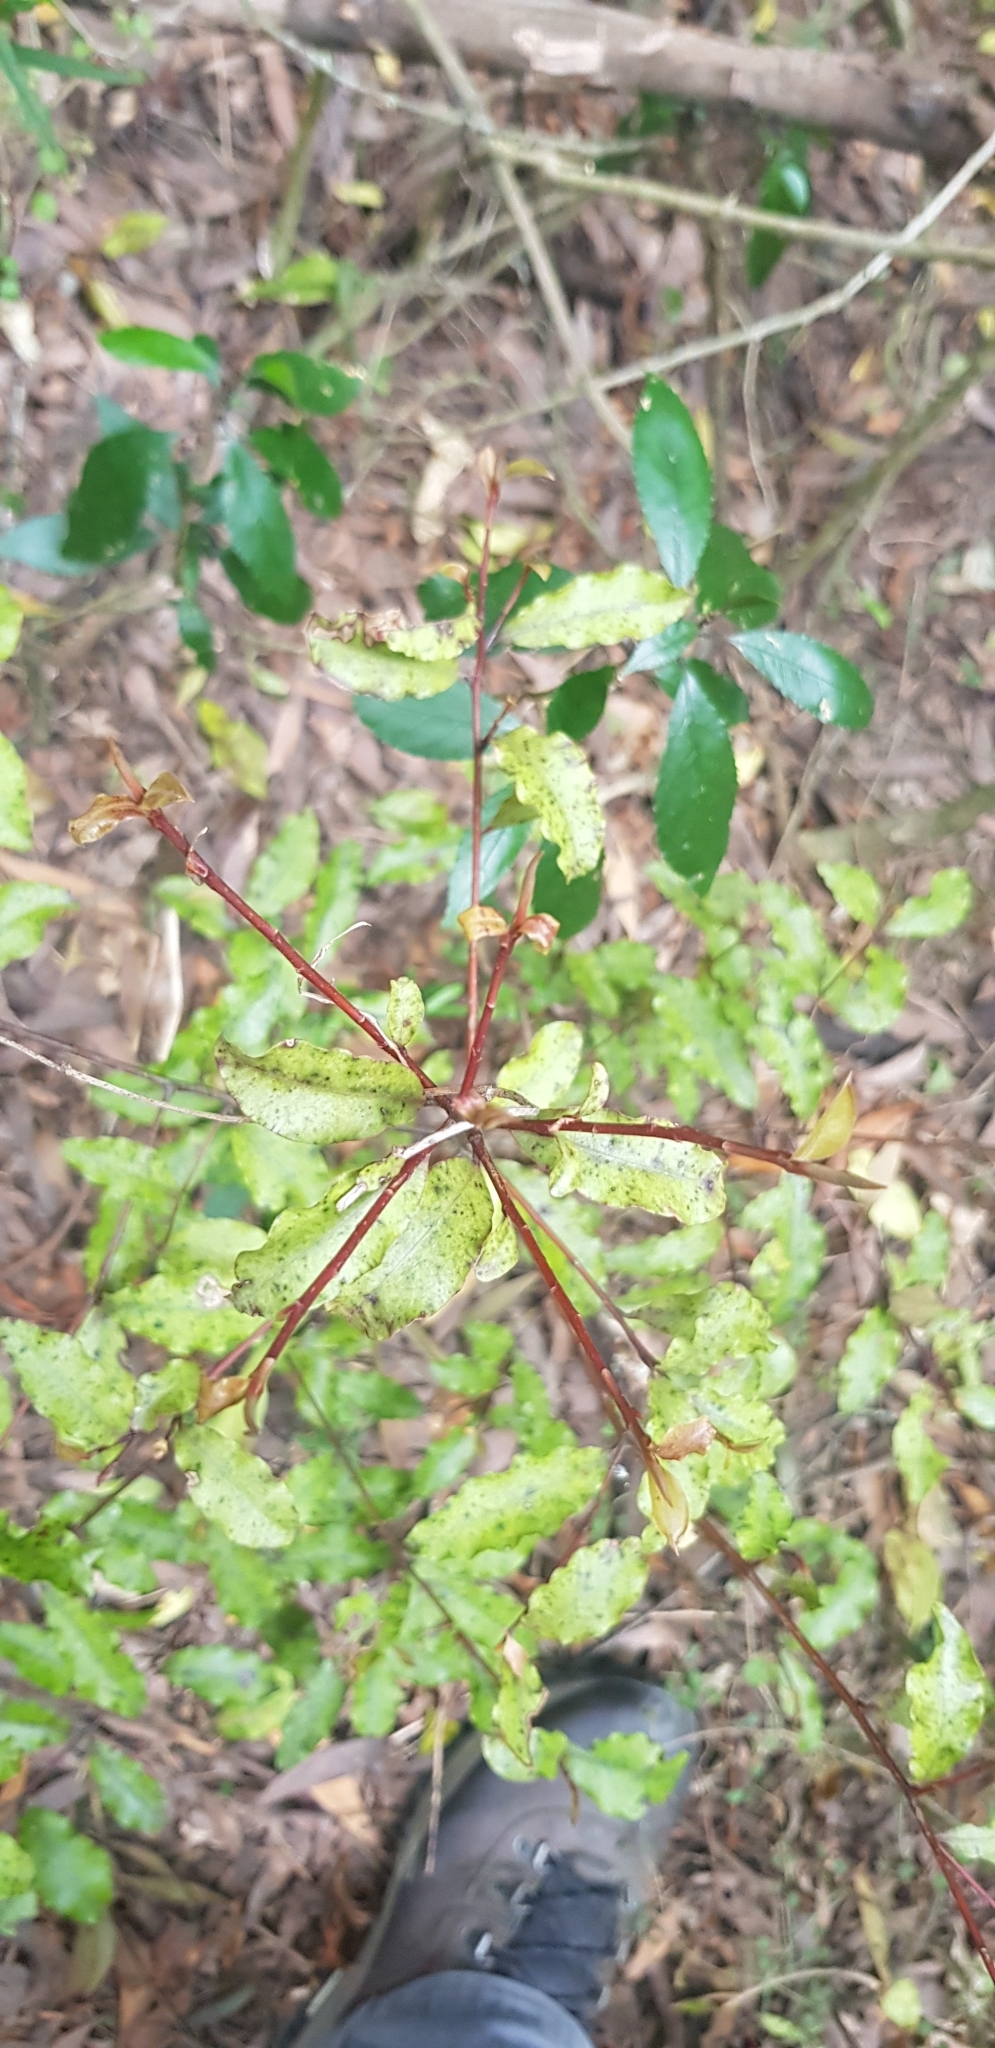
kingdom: Plantae
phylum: Tracheophyta
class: Magnoliopsida
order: Ericales
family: Primulaceae
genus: Myrsine
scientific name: Myrsine australis
